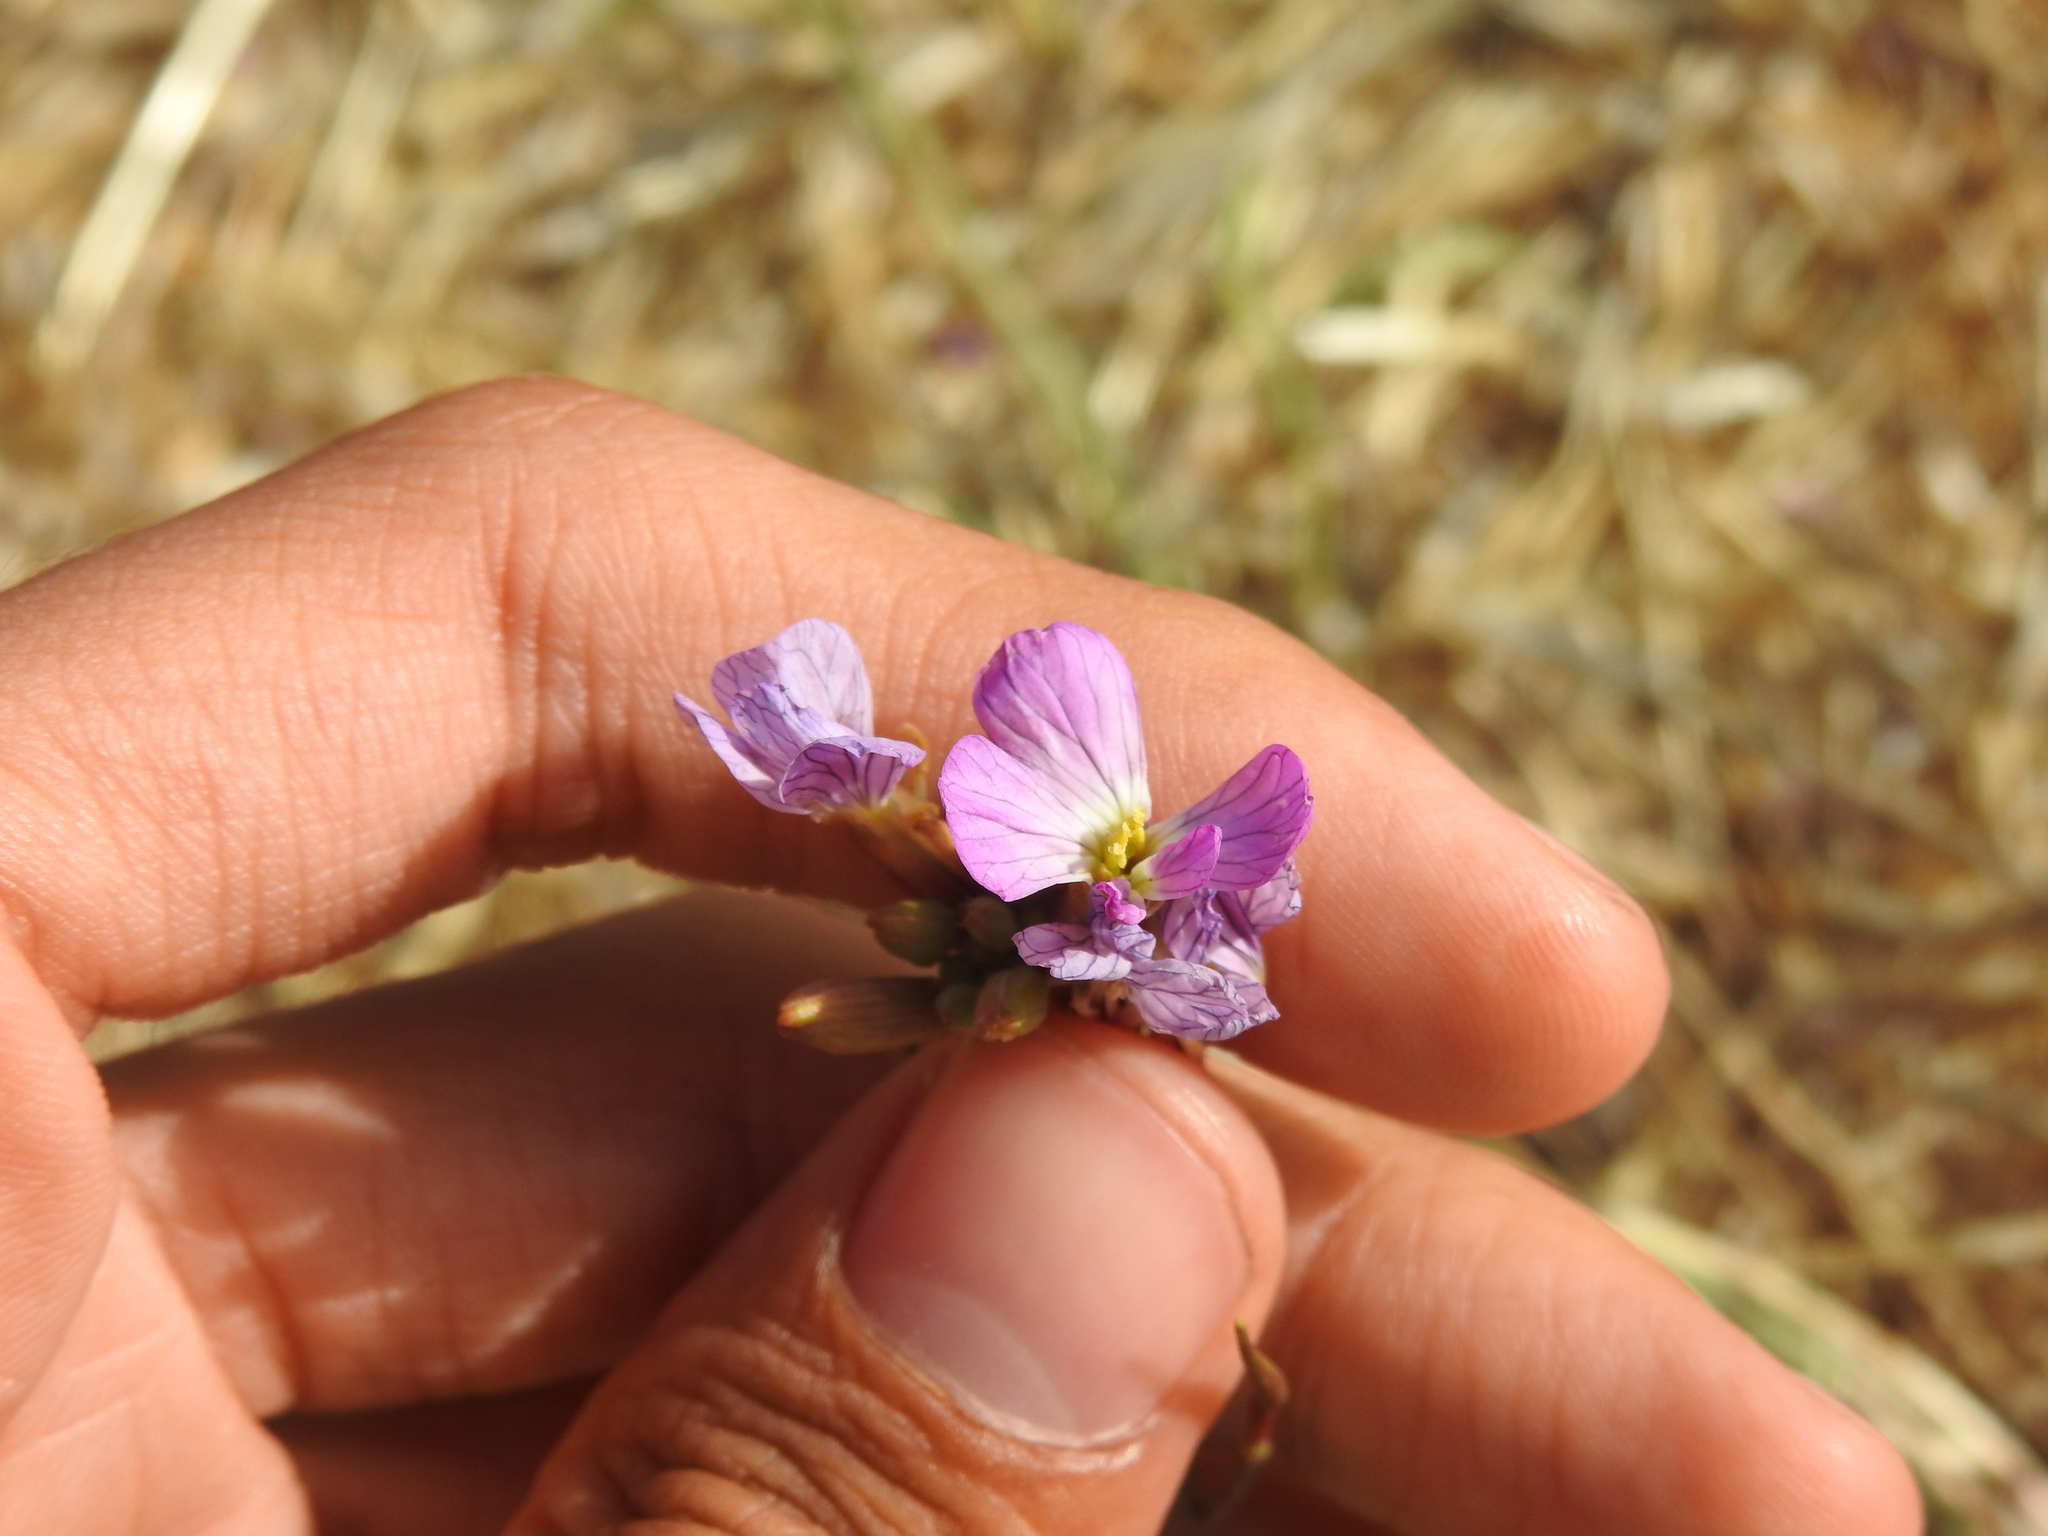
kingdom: Plantae
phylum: Tracheophyta
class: Magnoliopsida
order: Brassicales
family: Brassicaceae
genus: Raphanus
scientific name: Raphanus sativus
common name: Cultivated radish
